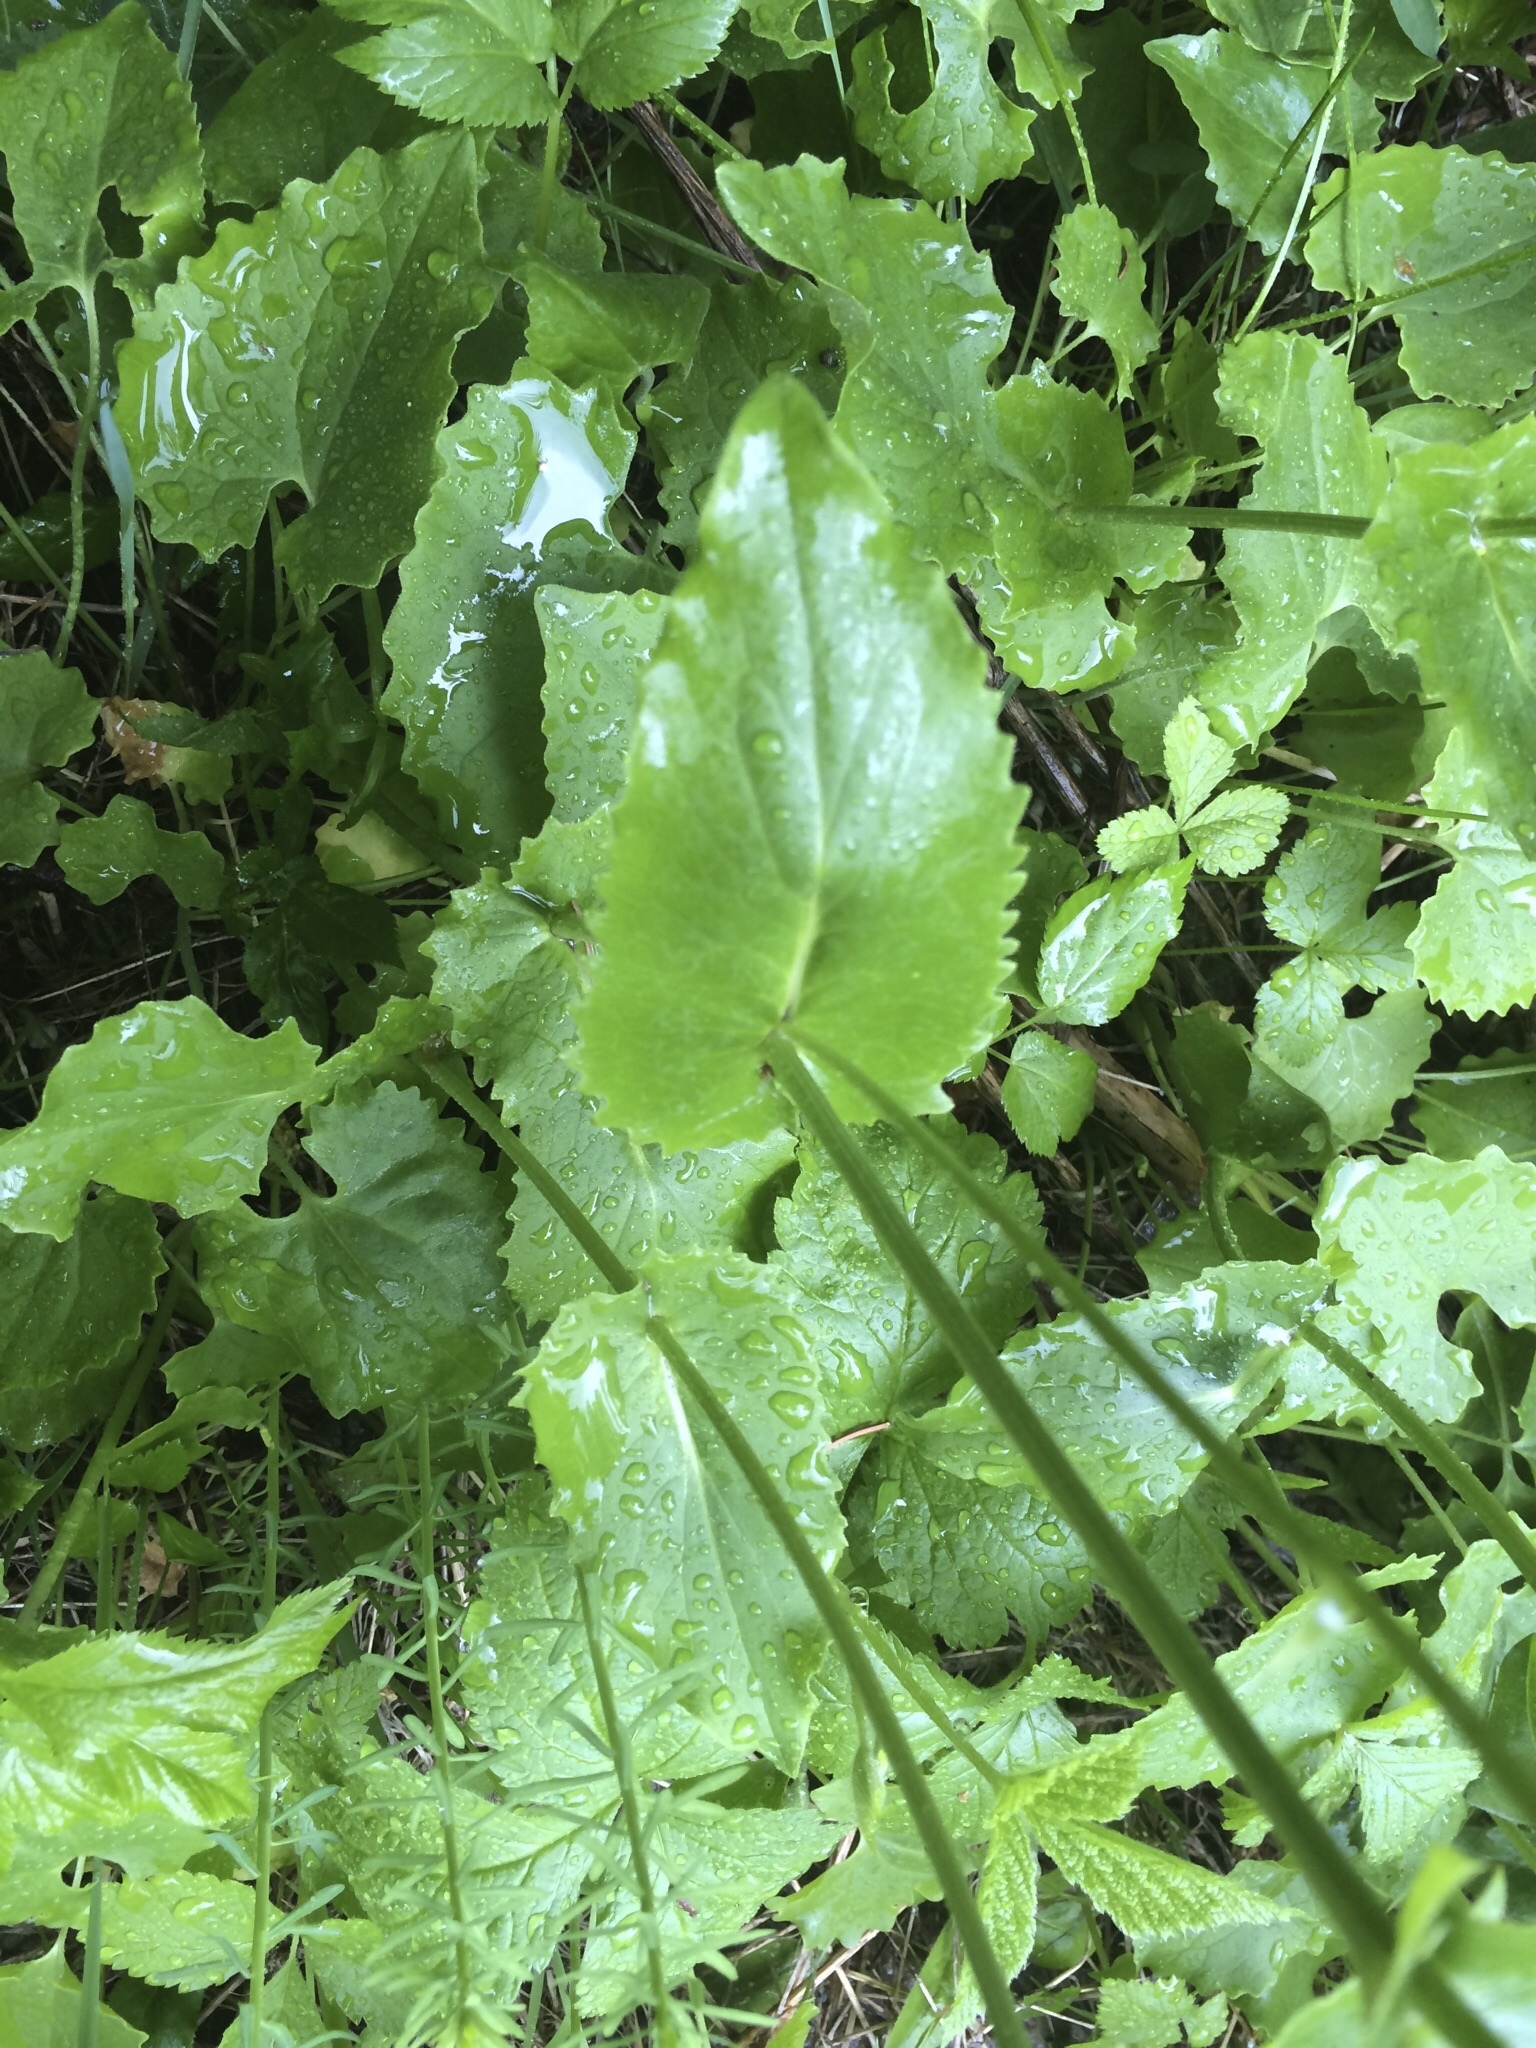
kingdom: Plantae
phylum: Tracheophyta
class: Magnoliopsida
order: Asterales
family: Asteraceae
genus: Doronicum
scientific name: Doronicum pardalianches
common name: Leopard's-bane
